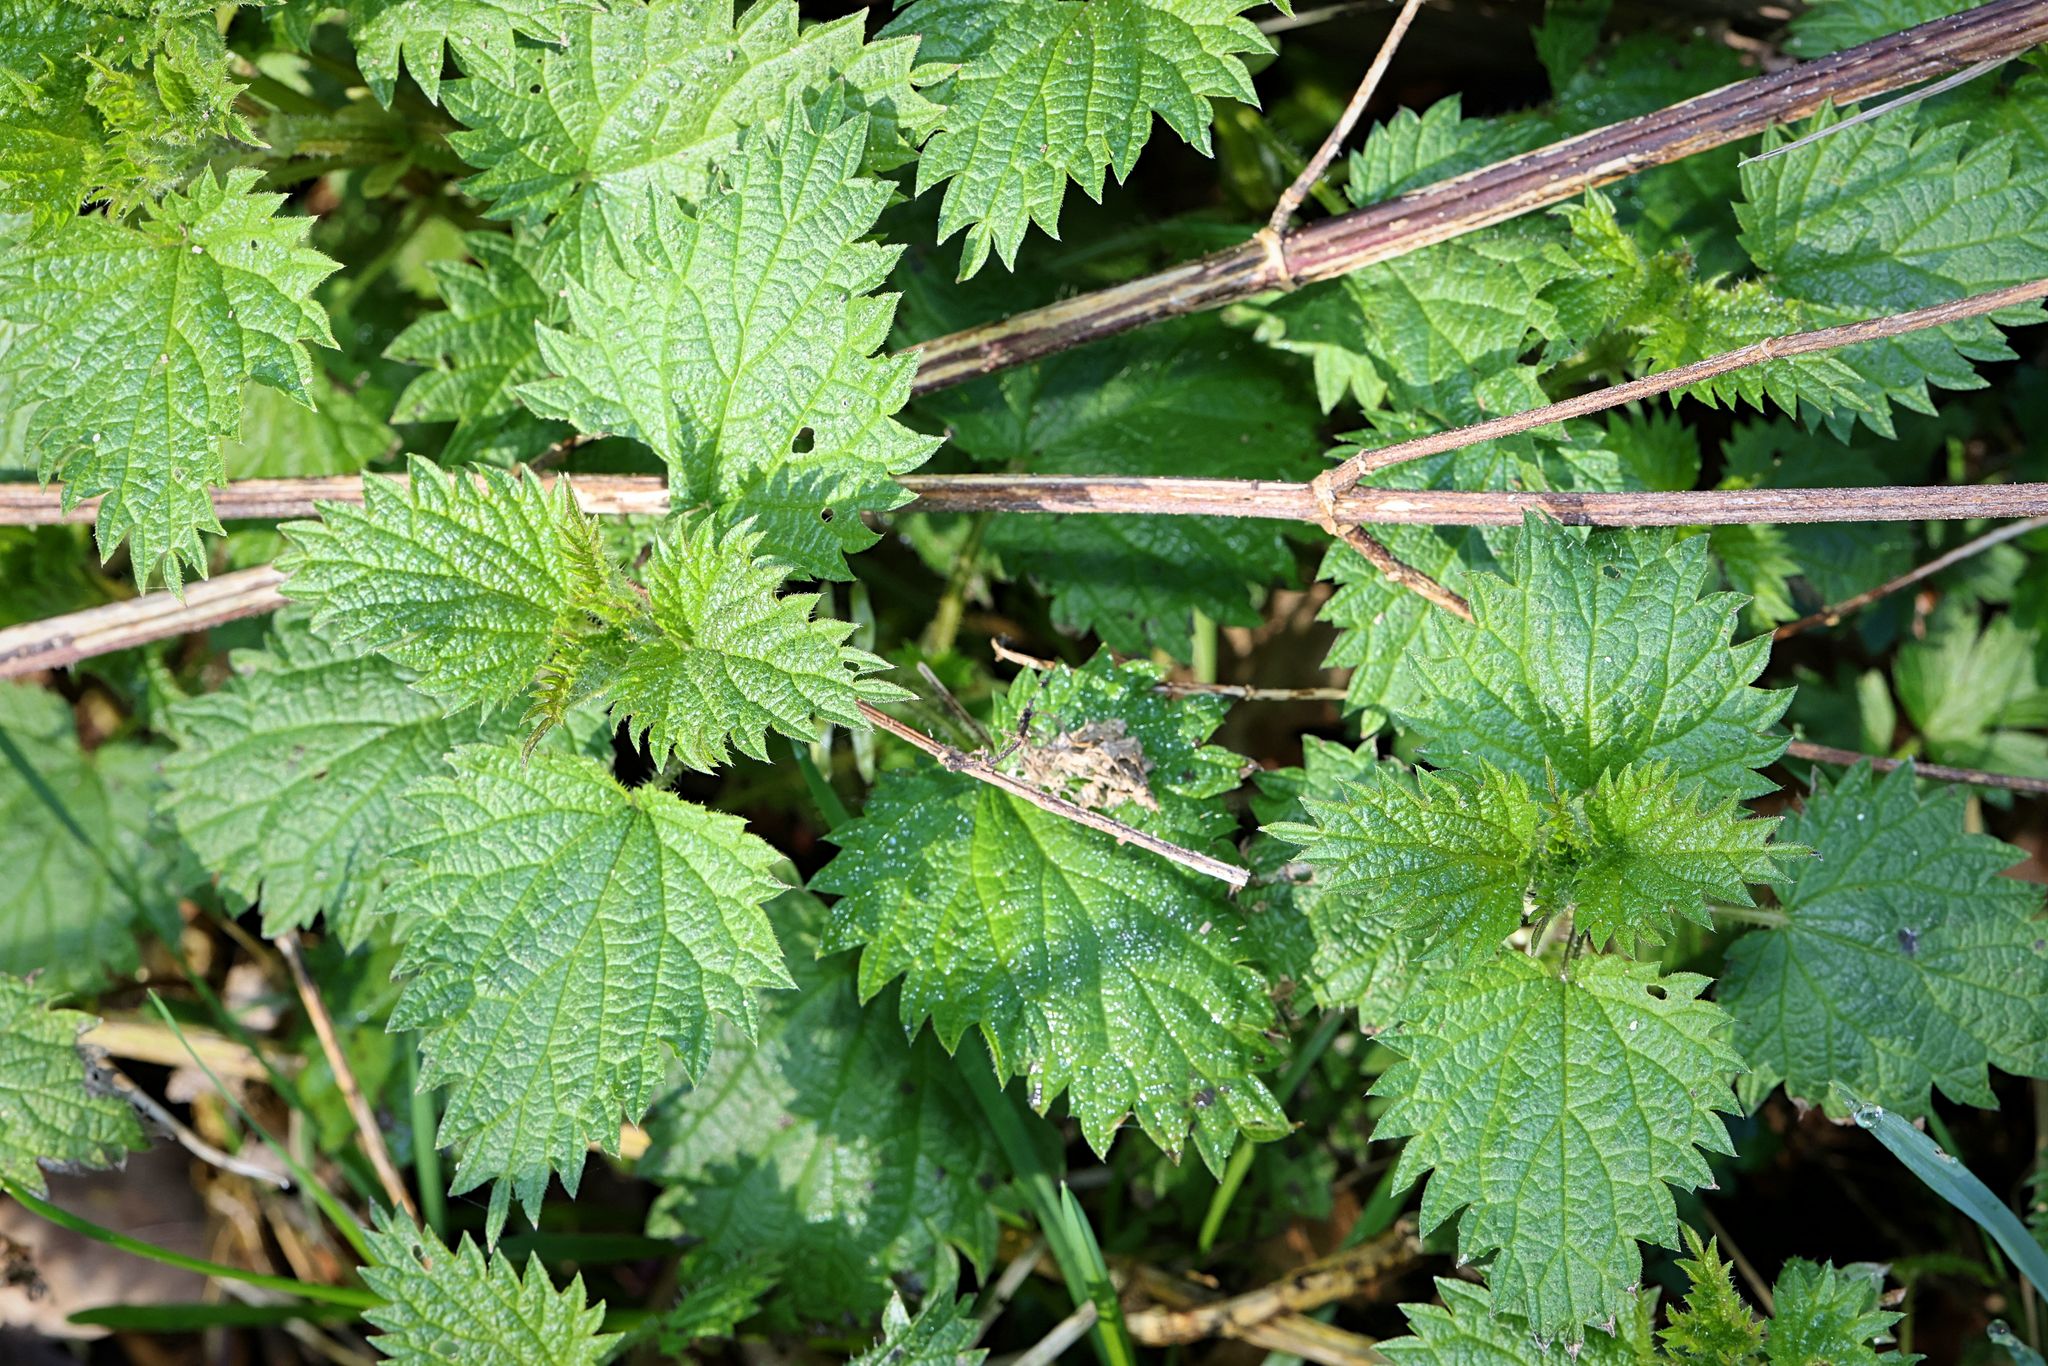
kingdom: Plantae
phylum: Tracheophyta
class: Magnoliopsida
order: Rosales
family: Urticaceae
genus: Urtica
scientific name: Urtica dioica
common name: Common nettle
